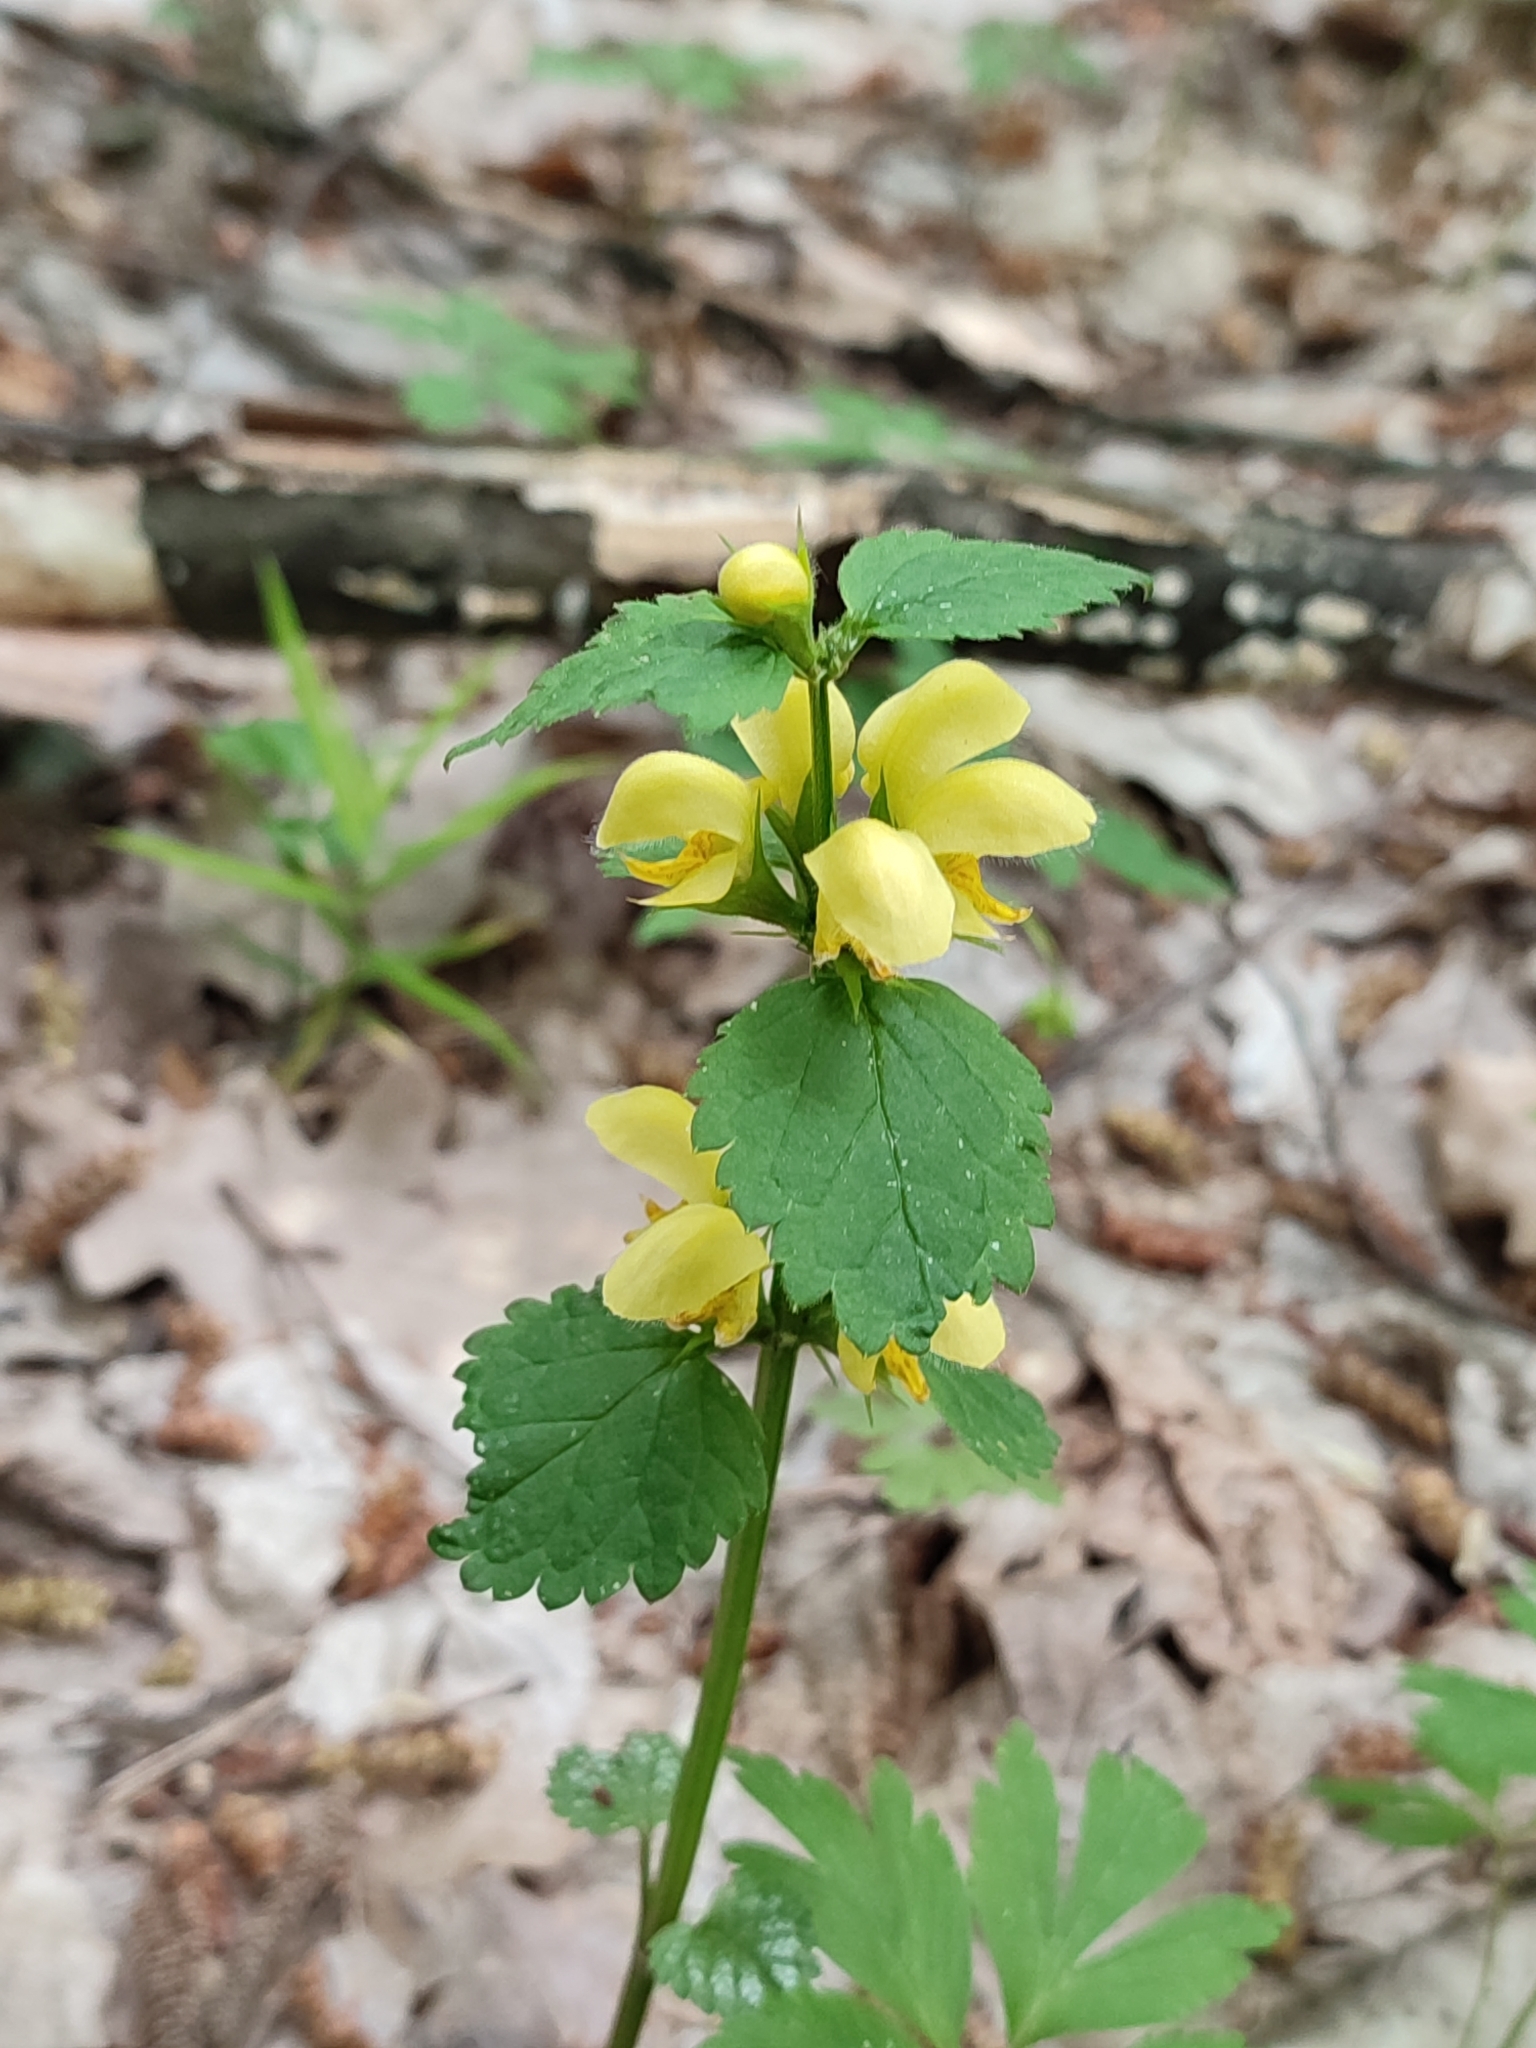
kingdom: Plantae
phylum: Tracheophyta
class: Magnoliopsida
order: Lamiales
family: Lamiaceae
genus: Lamium
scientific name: Lamium galeobdolon
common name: Yellow archangel
